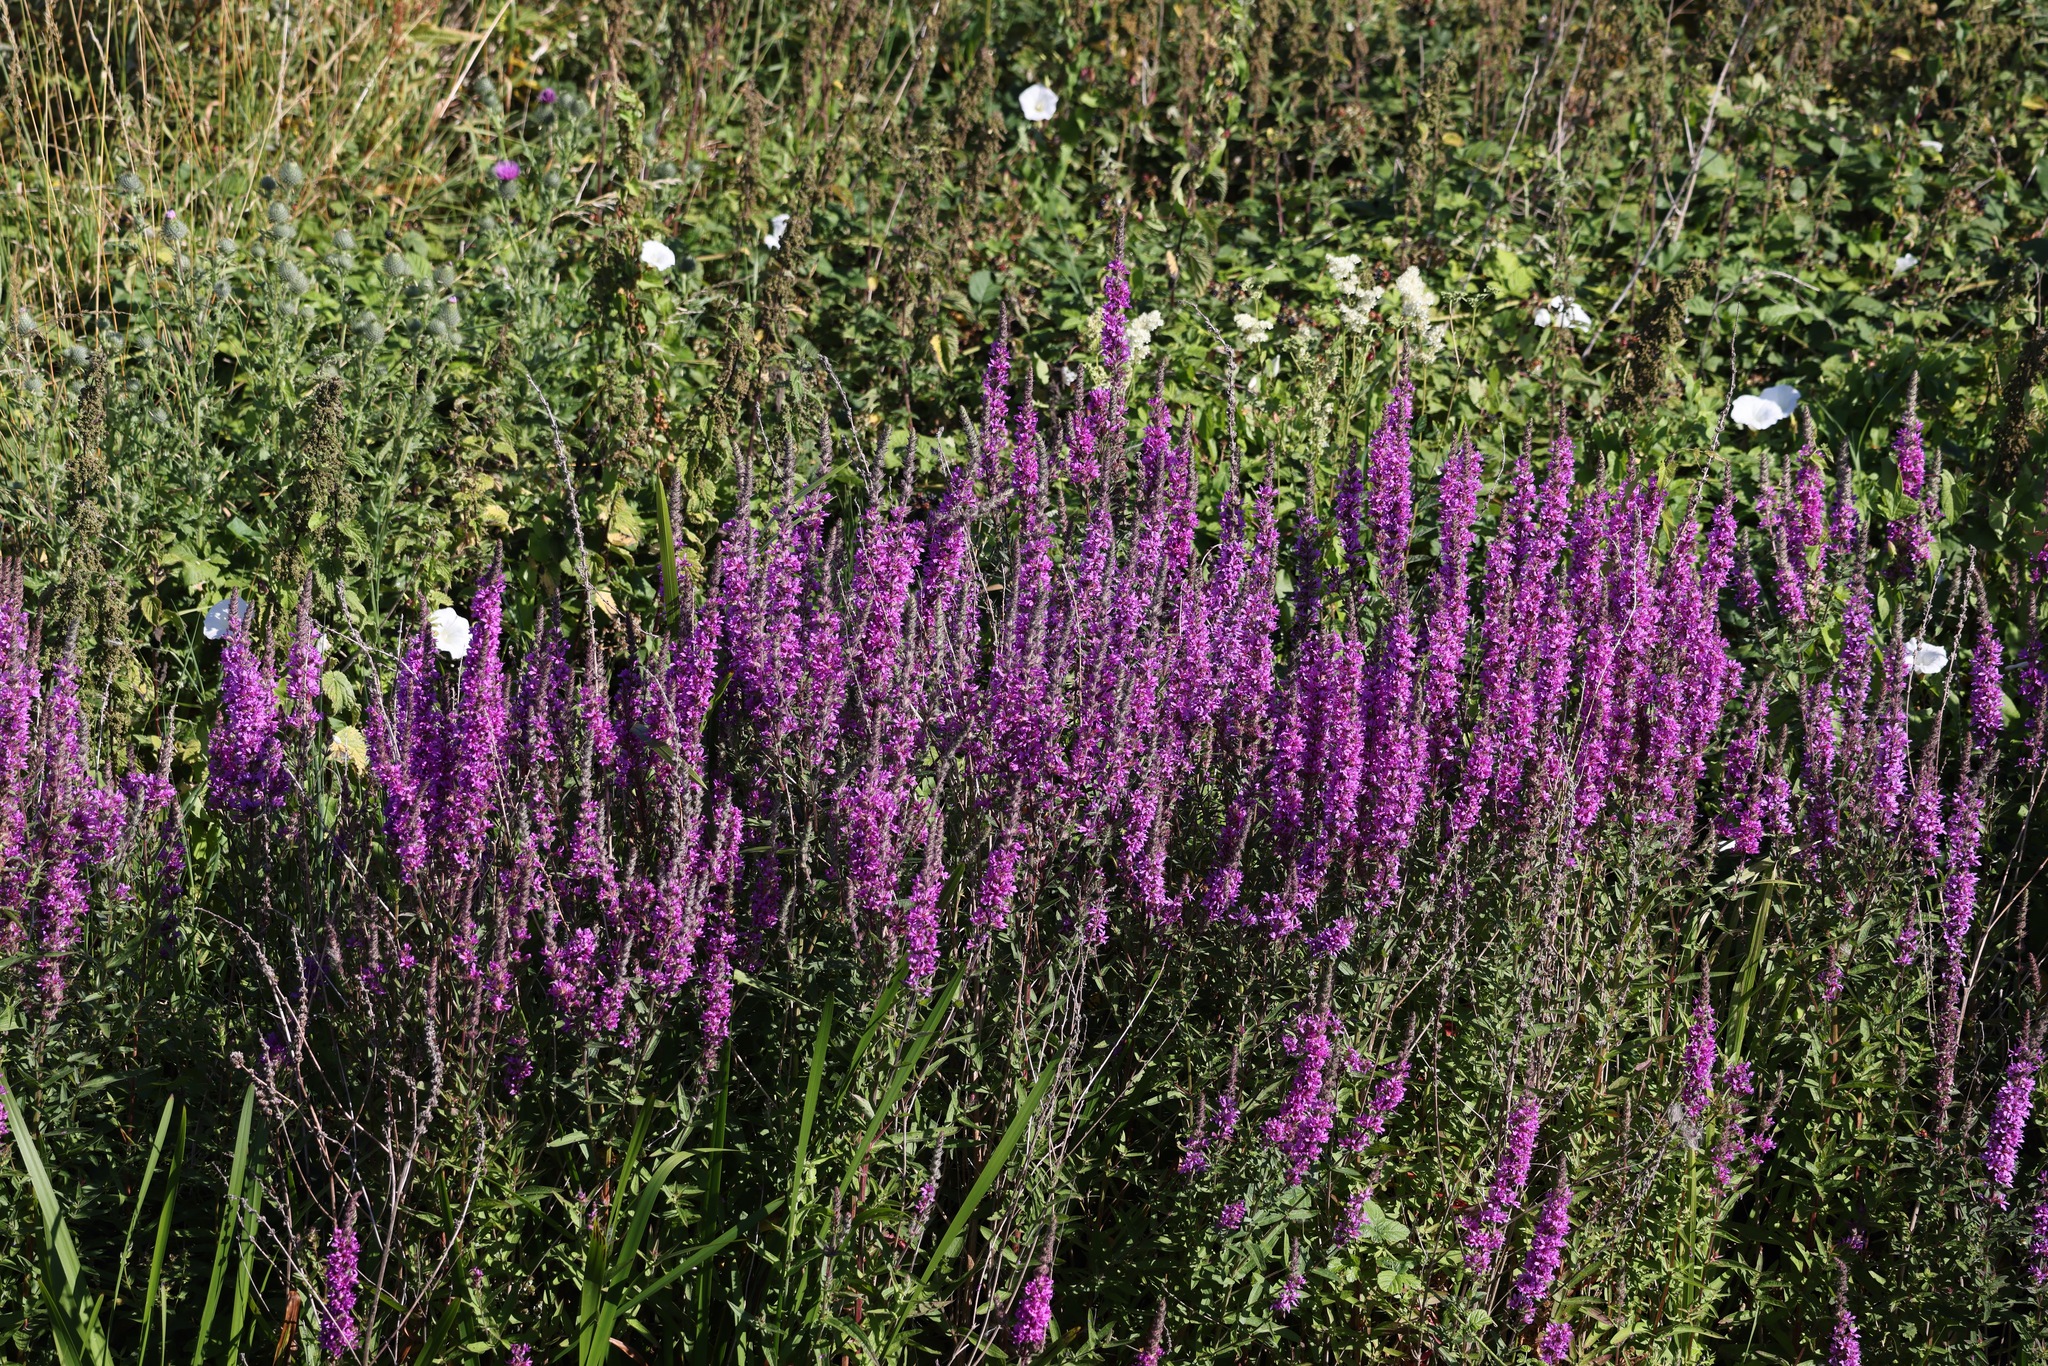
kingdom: Plantae
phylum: Tracheophyta
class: Magnoliopsida
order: Myrtales
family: Lythraceae
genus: Lythrum
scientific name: Lythrum salicaria
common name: Purple loosestrife
